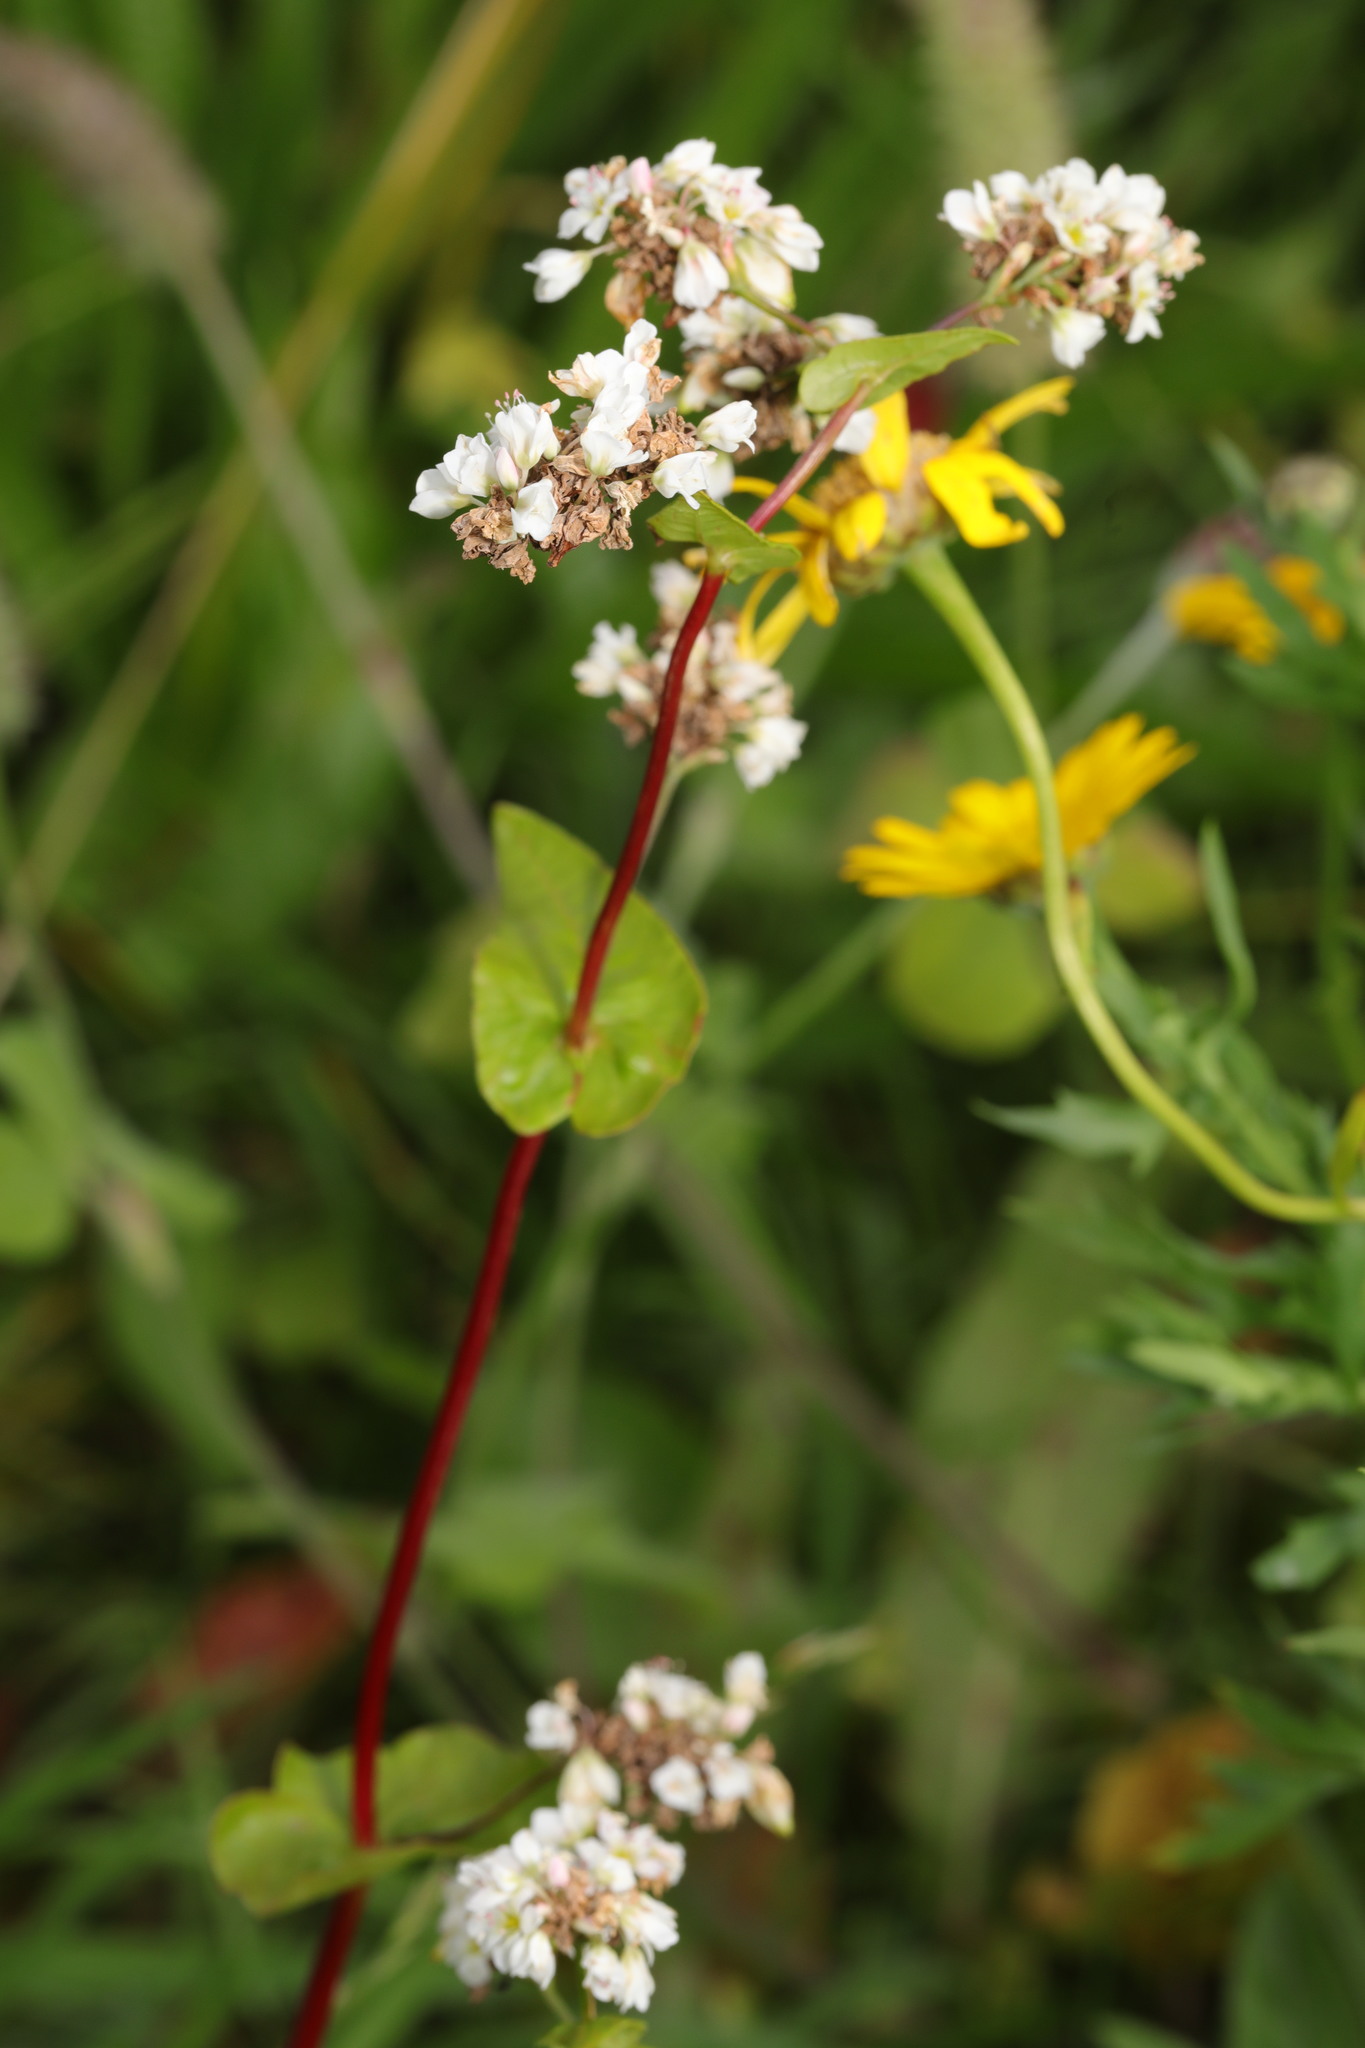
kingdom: Plantae
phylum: Tracheophyta
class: Magnoliopsida
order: Caryophyllales
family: Polygonaceae
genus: Fagopyrum
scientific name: Fagopyrum esculentum
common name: Buckwheat
